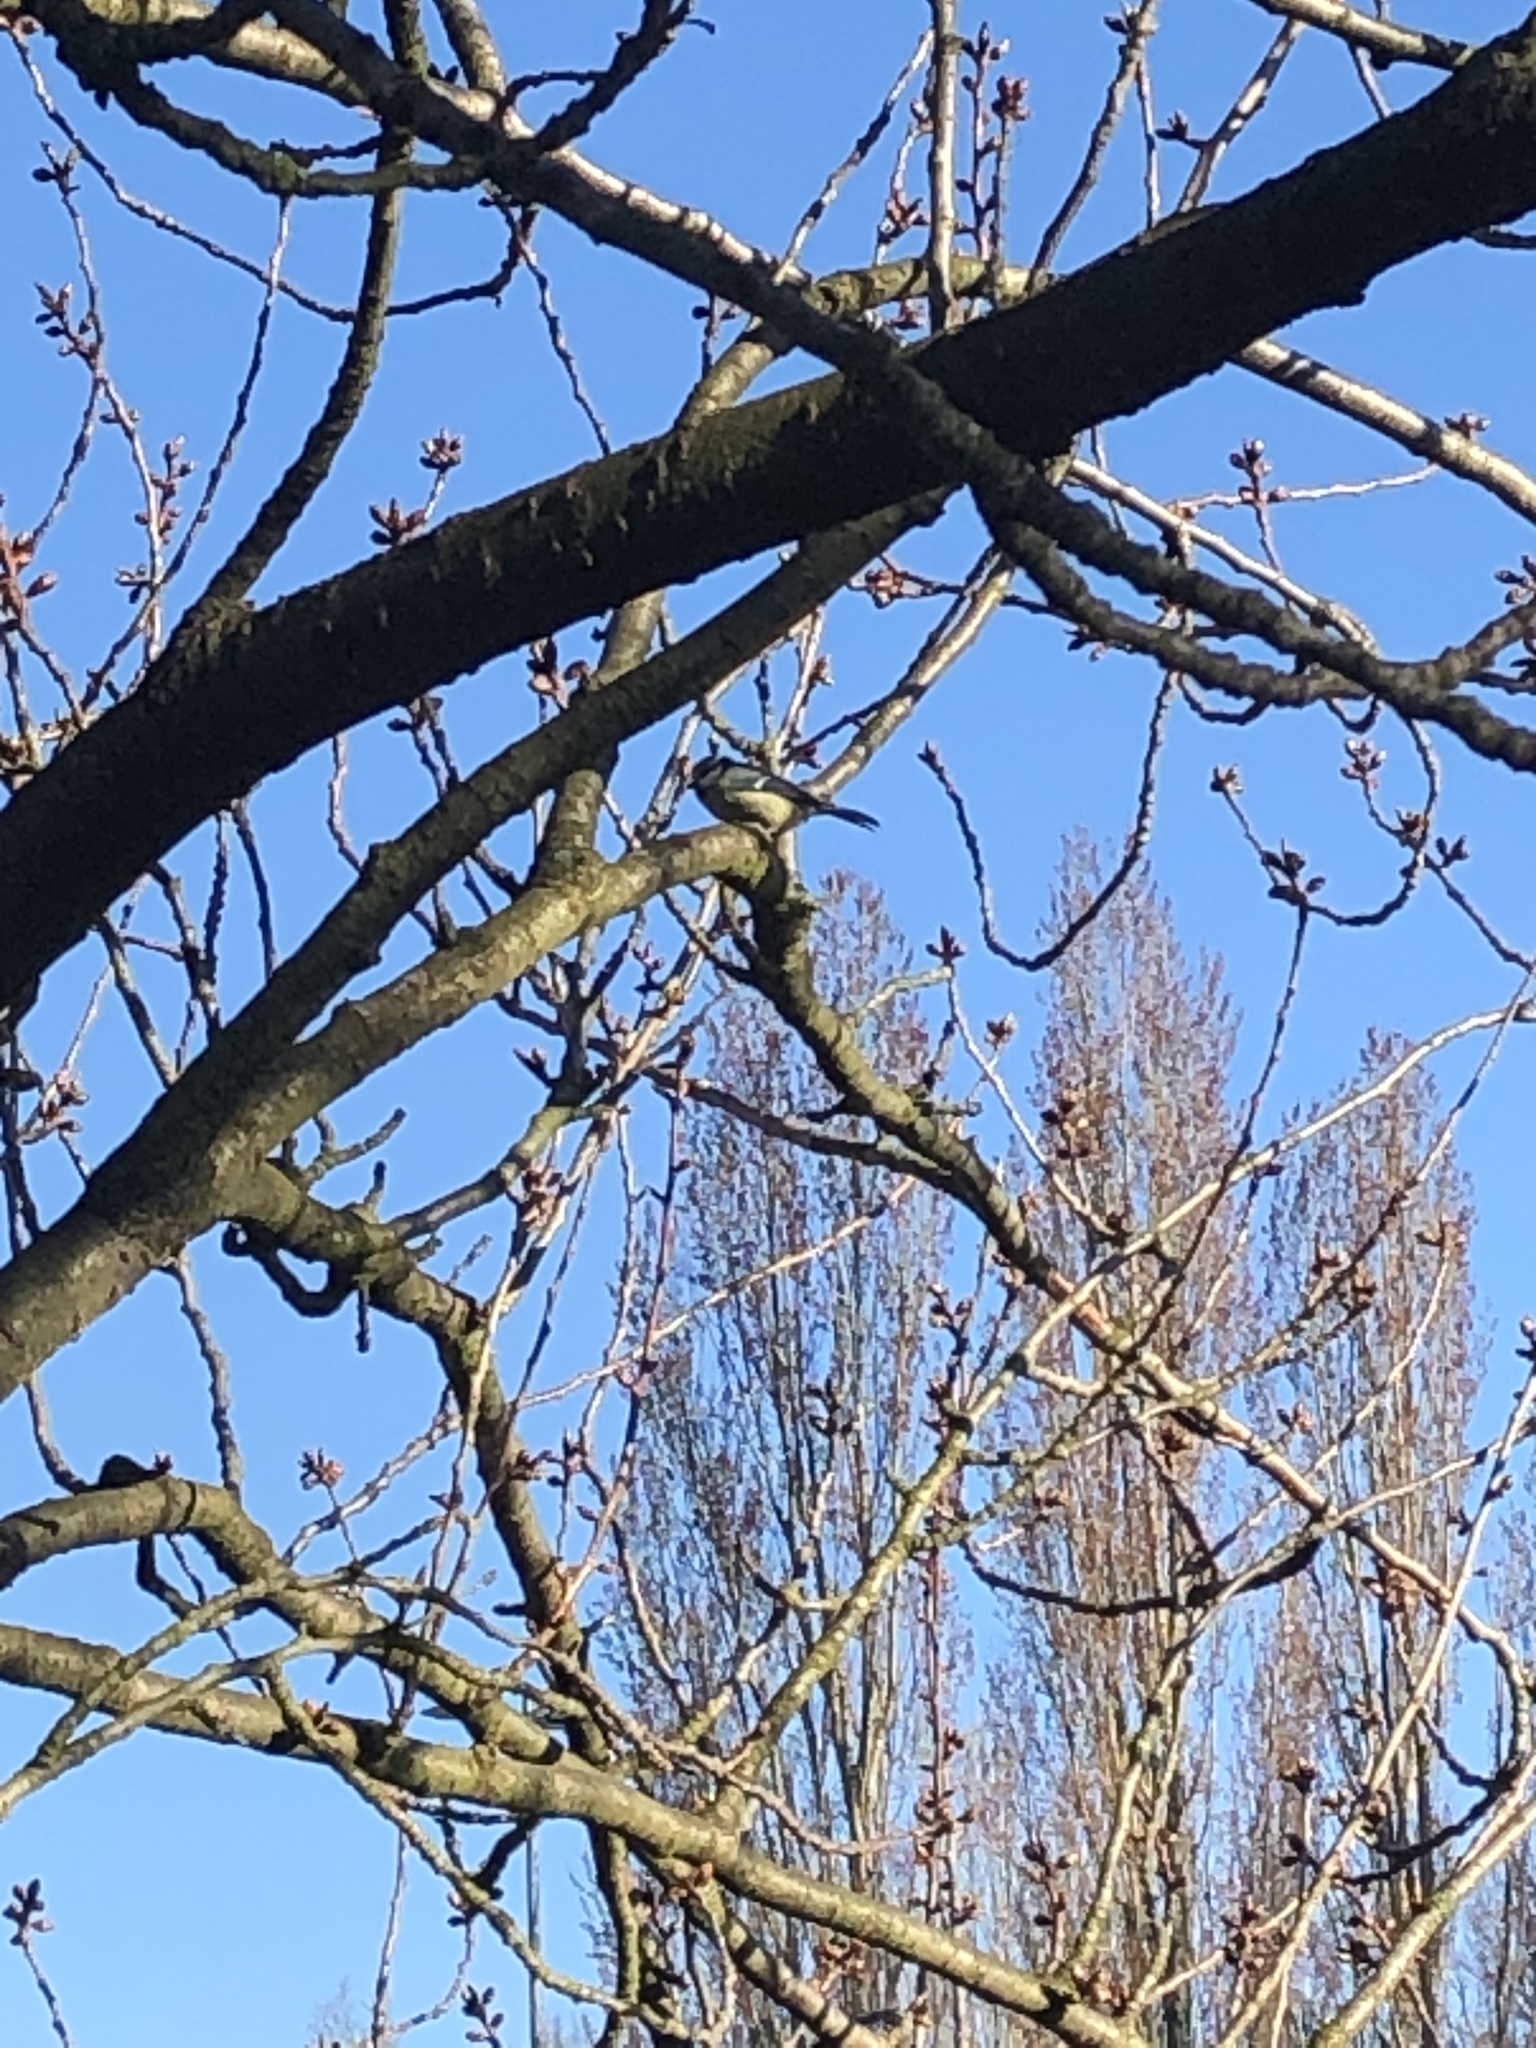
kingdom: Animalia
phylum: Chordata
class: Aves
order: Passeriformes
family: Paridae
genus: Cyanistes
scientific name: Cyanistes caeruleus
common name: Eurasian blue tit
